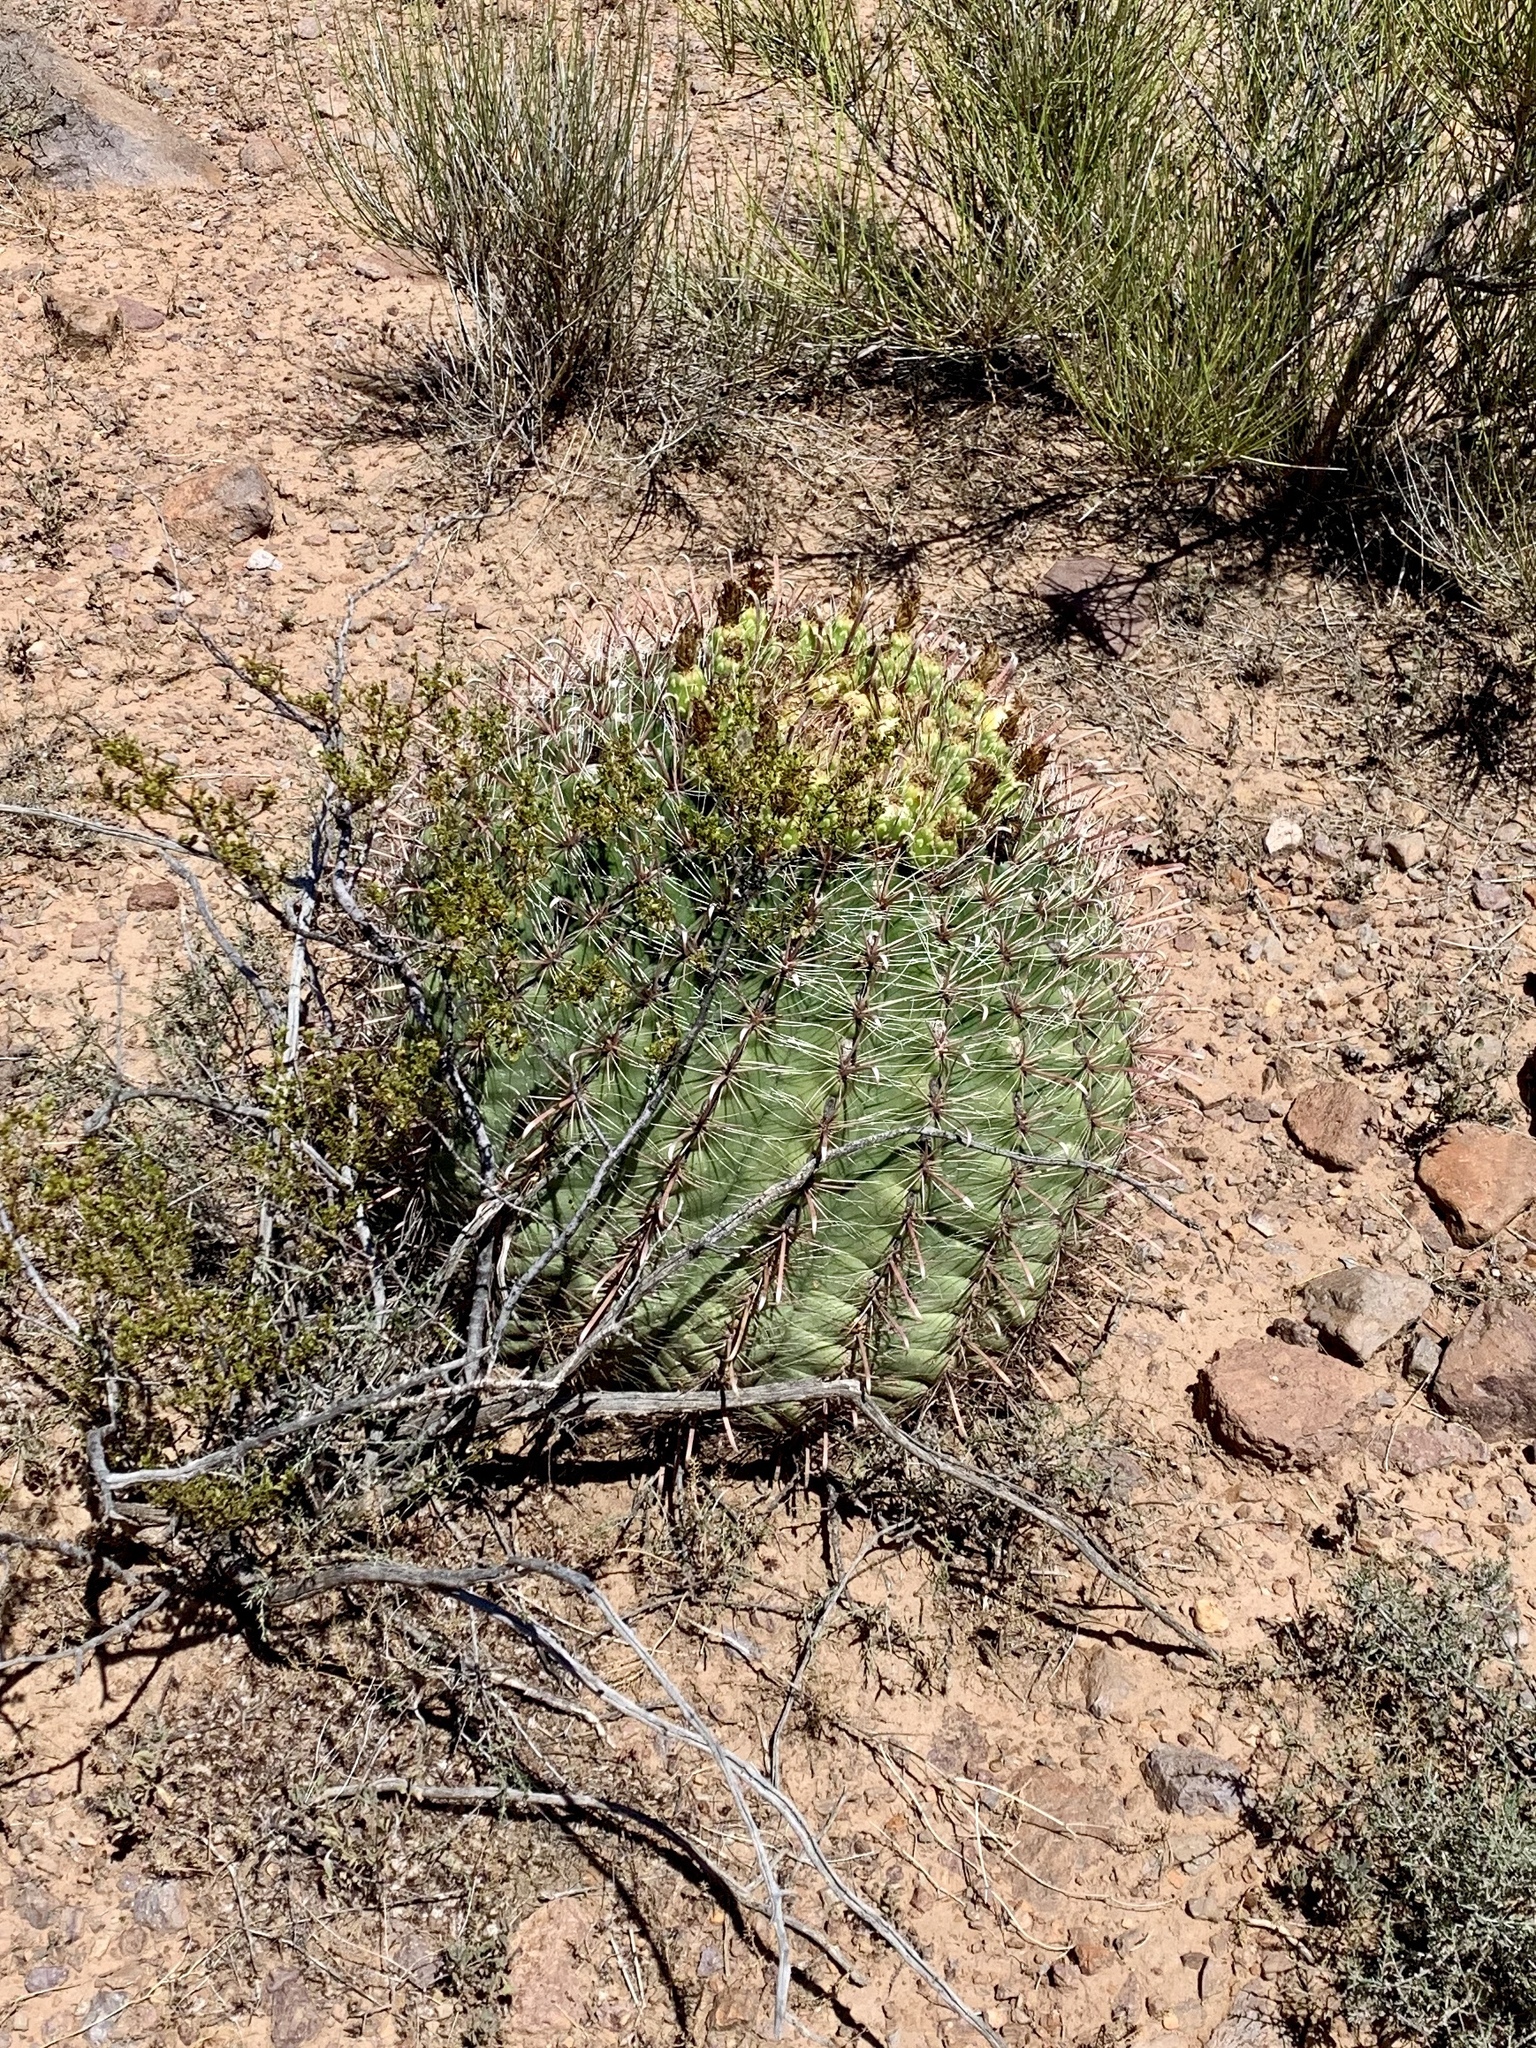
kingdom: Plantae
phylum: Tracheophyta
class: Magnoliopsida
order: Caryophyllales
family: Cactaceae
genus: Ferocactus
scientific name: Ferocactus wislizeni
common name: Candy barrel cactus
